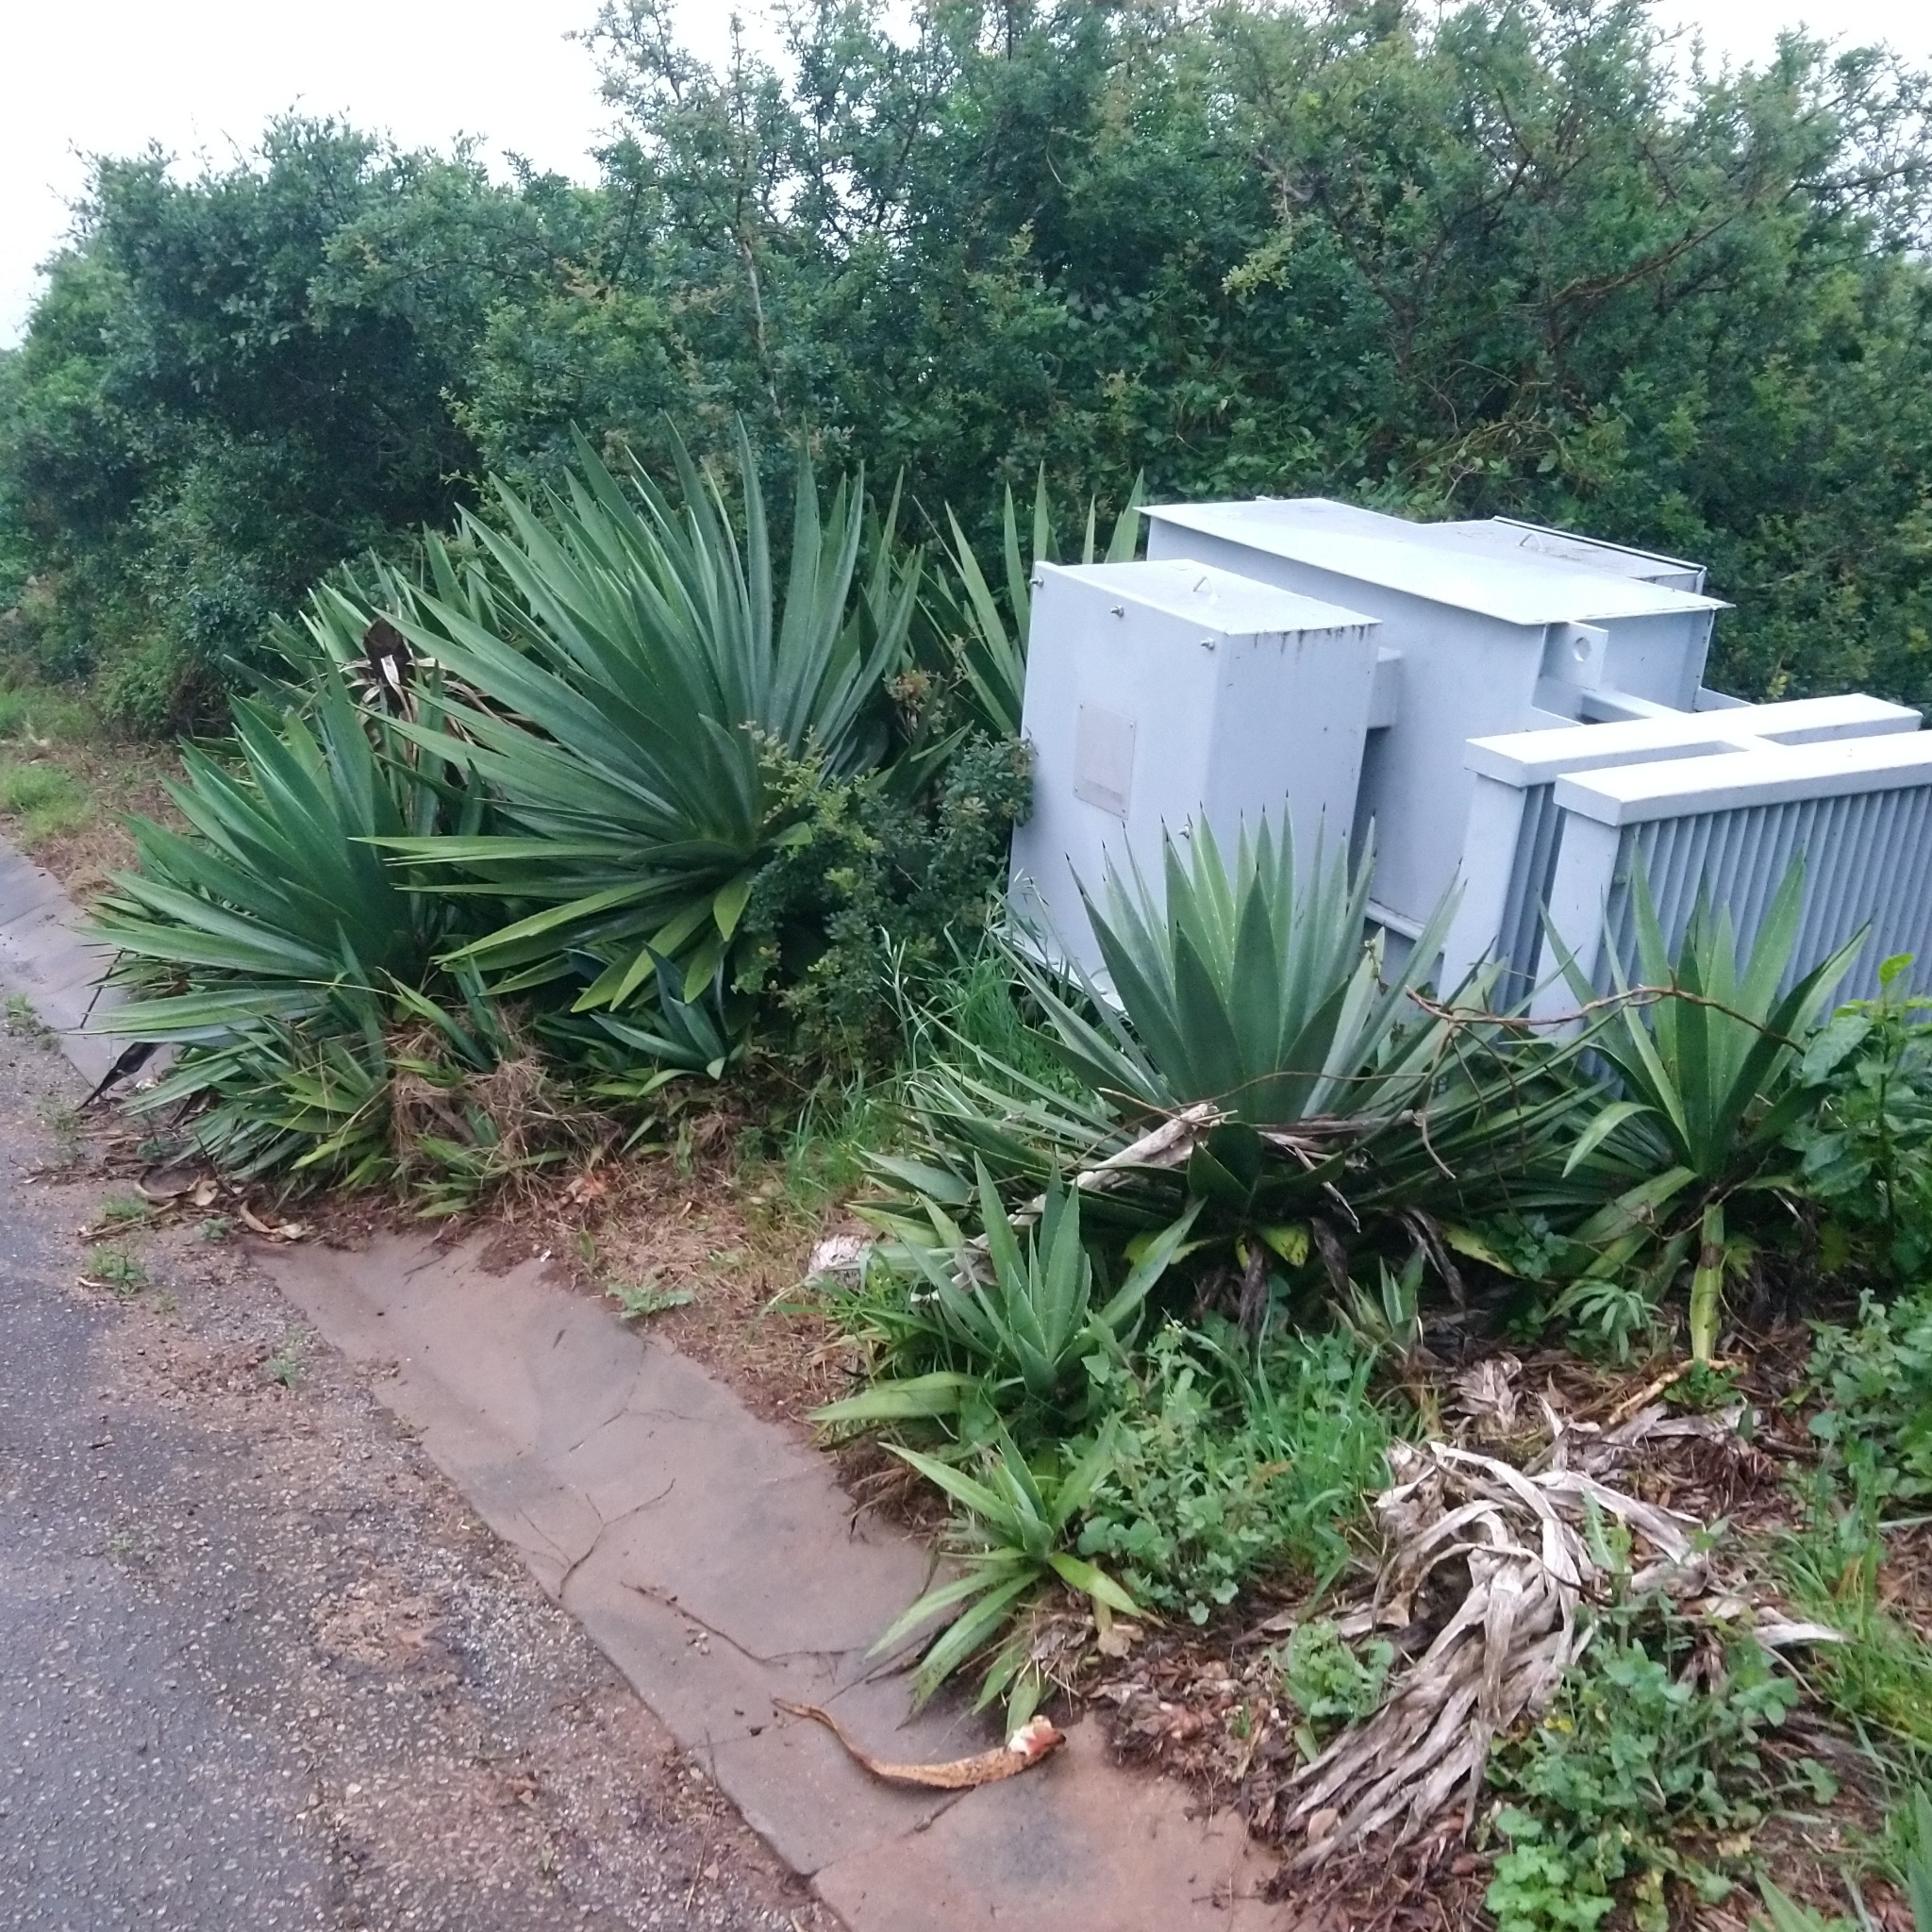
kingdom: Plantae
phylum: Tracheophyta
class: Liliopsida
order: Asparagales
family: Asparagaceae
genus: Agave
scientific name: Agave angustifolia
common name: Mescal agave
